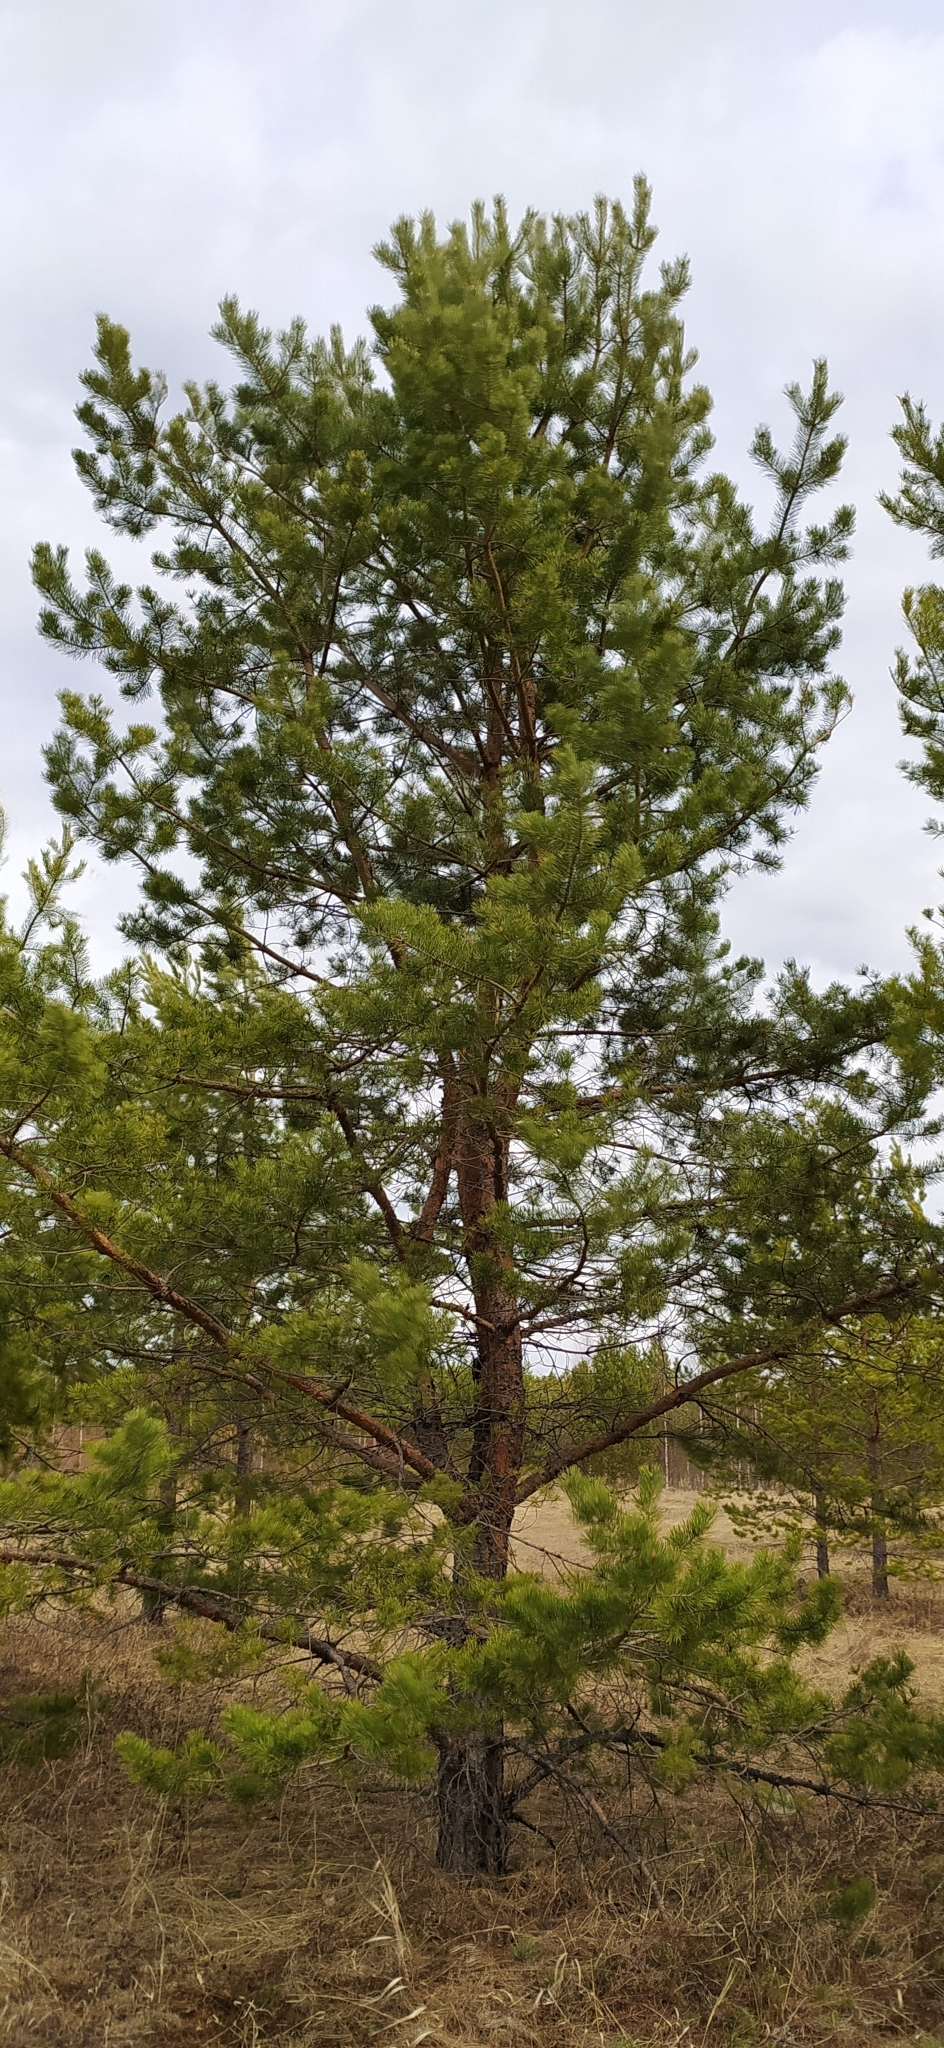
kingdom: Plantae
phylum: Tracheophyta
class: Pinopsida
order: Pinales
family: Pinaceae
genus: Pinus
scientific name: Pinus sylvestris
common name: Scots pine
